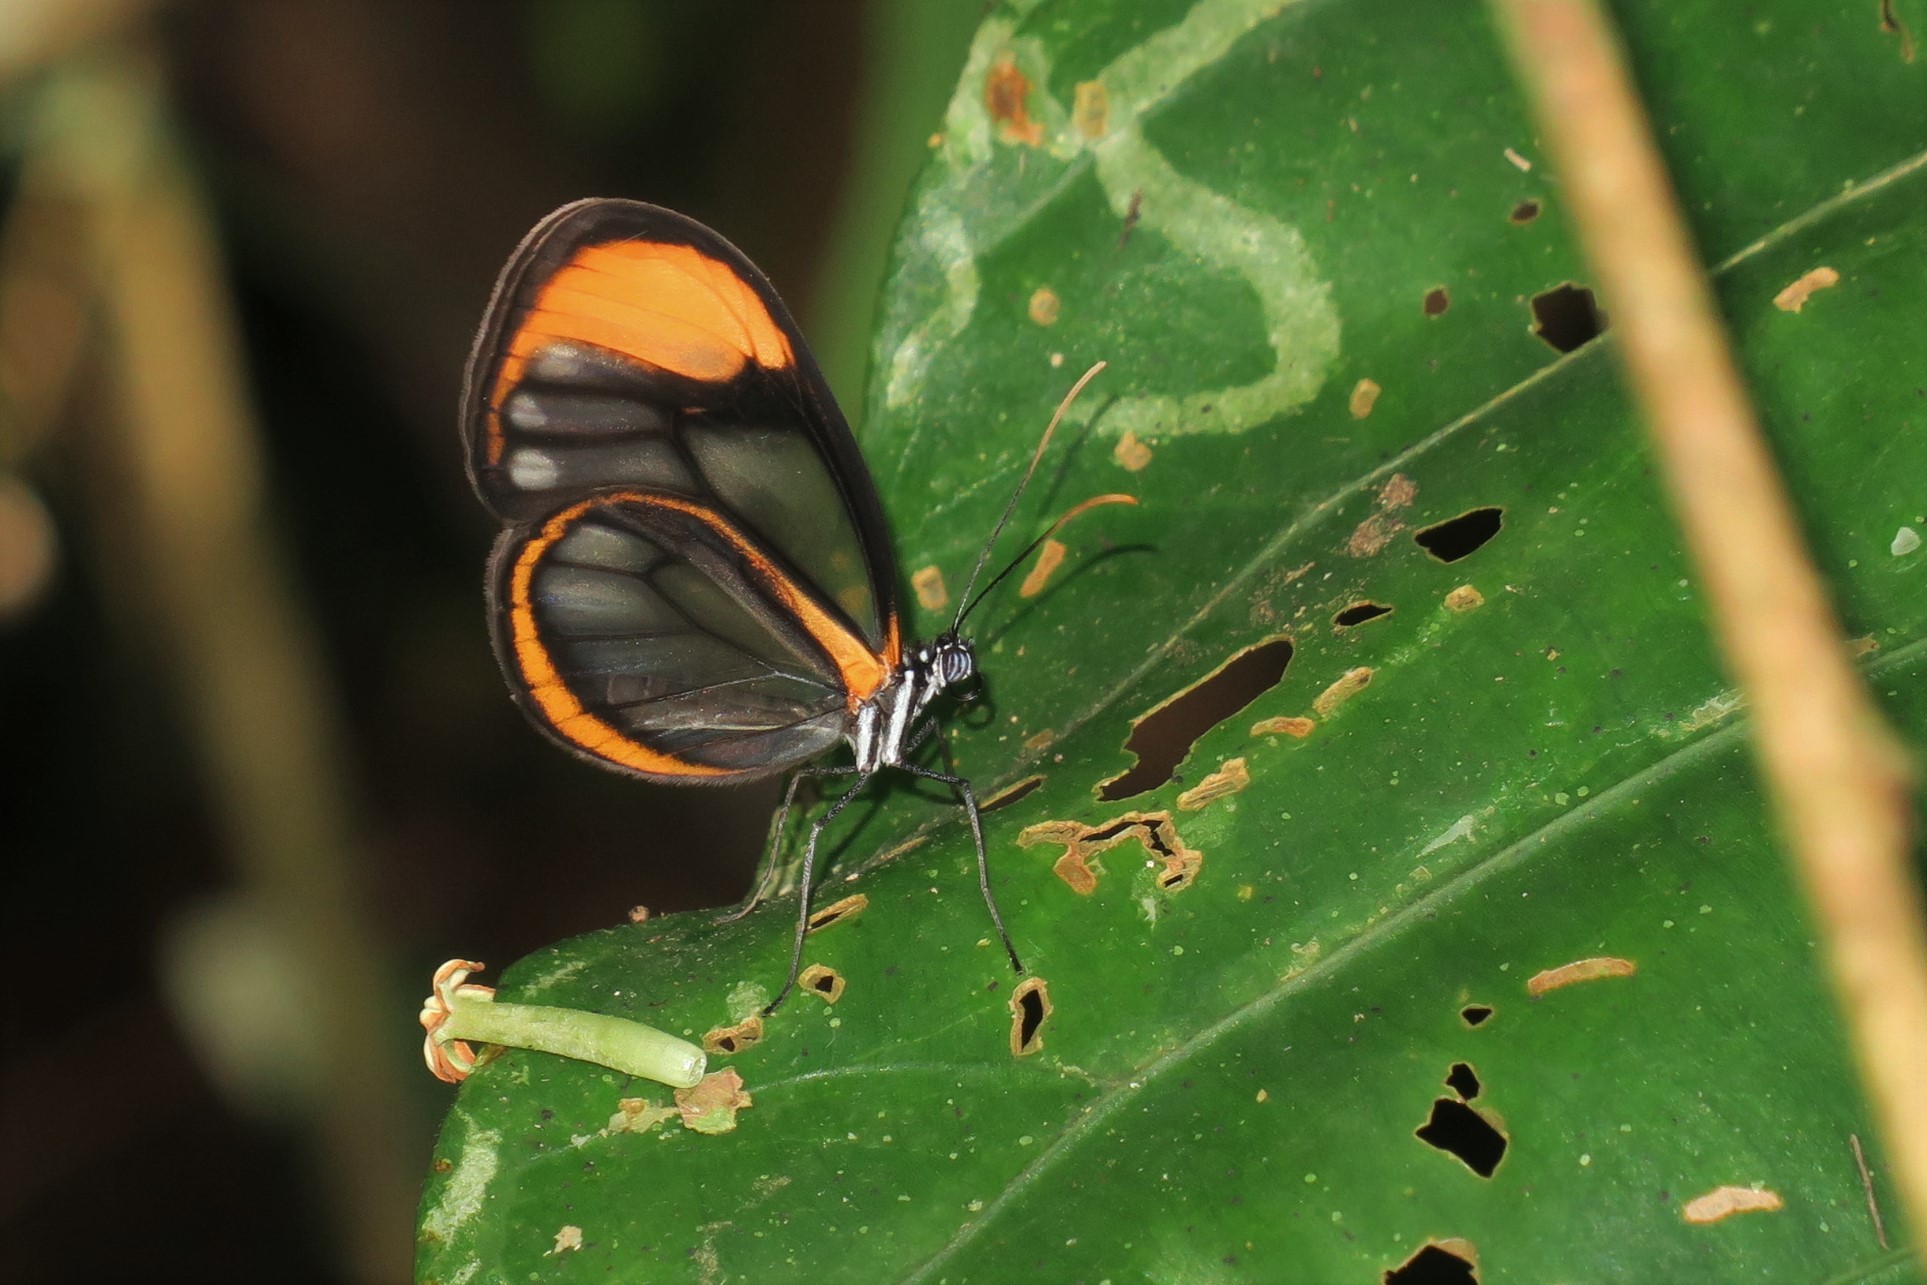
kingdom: Animalia
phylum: Arthropoda
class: Insecta
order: Lepidoptera
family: Nymphalidae
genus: Hypoleria
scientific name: Hypoleria lavinia
